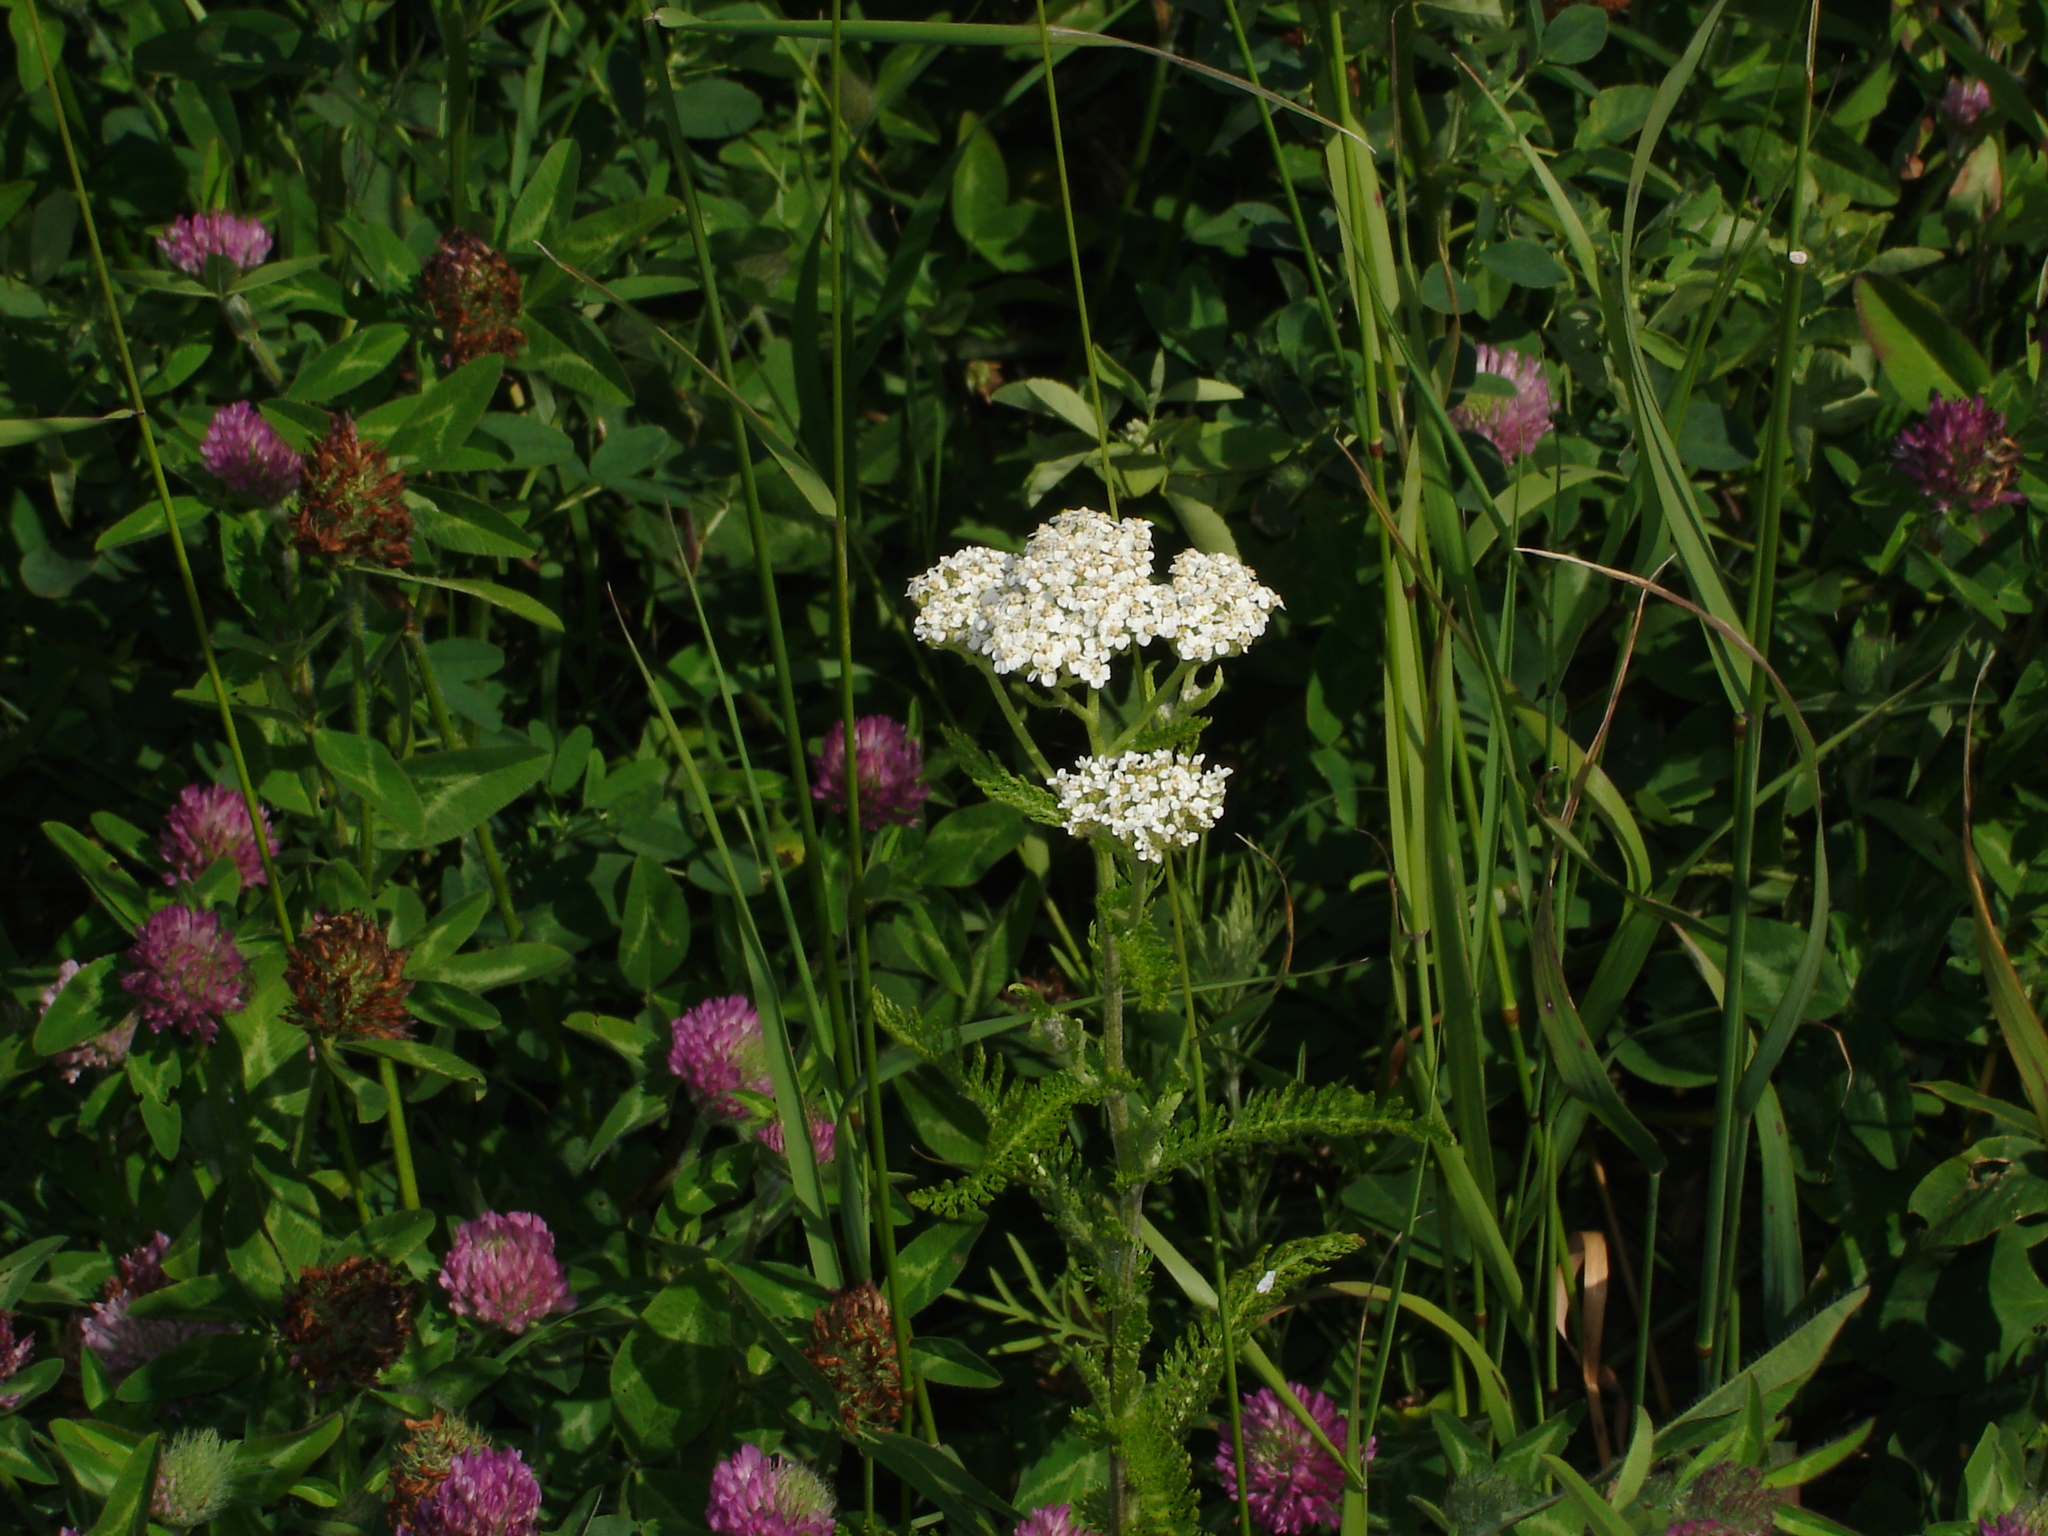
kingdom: Plantae
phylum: Tracheophyta
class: Magnoliopsida
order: Fabales
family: Fabaceae
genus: Trifolium
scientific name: Trifolium pratense
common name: Red clover
